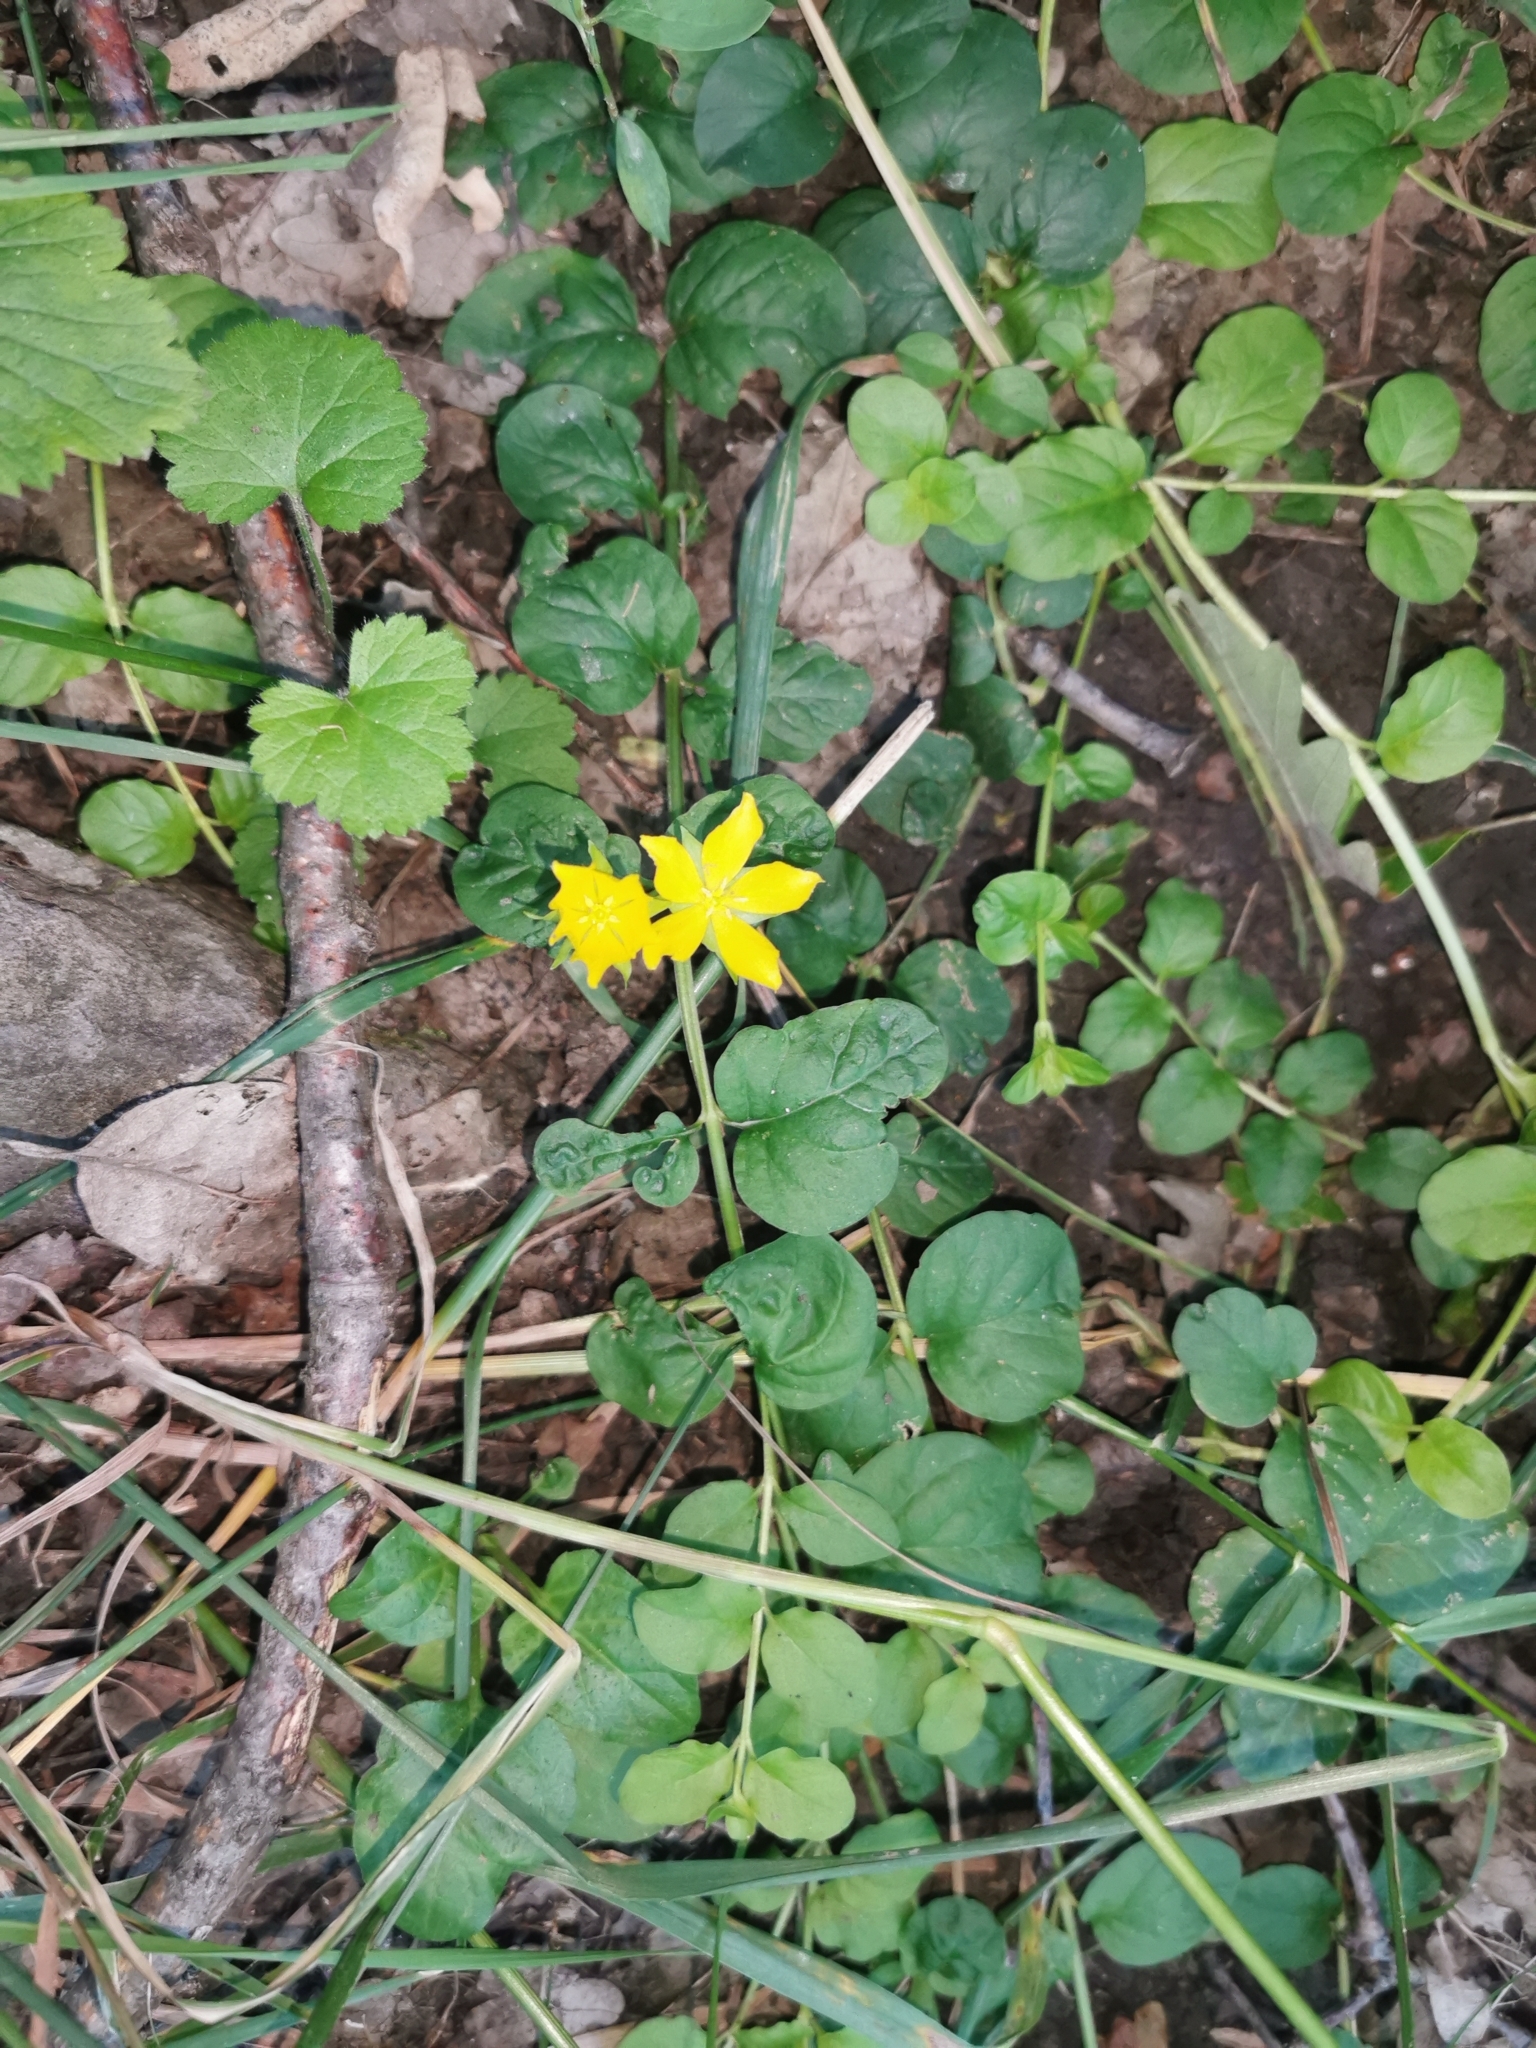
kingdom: Plantae
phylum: Tracheophyta
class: Magnoliopsida
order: Ericales
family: Primulaceae
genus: Lysimachia
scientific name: Lysimachia nummularia
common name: Moneywort
